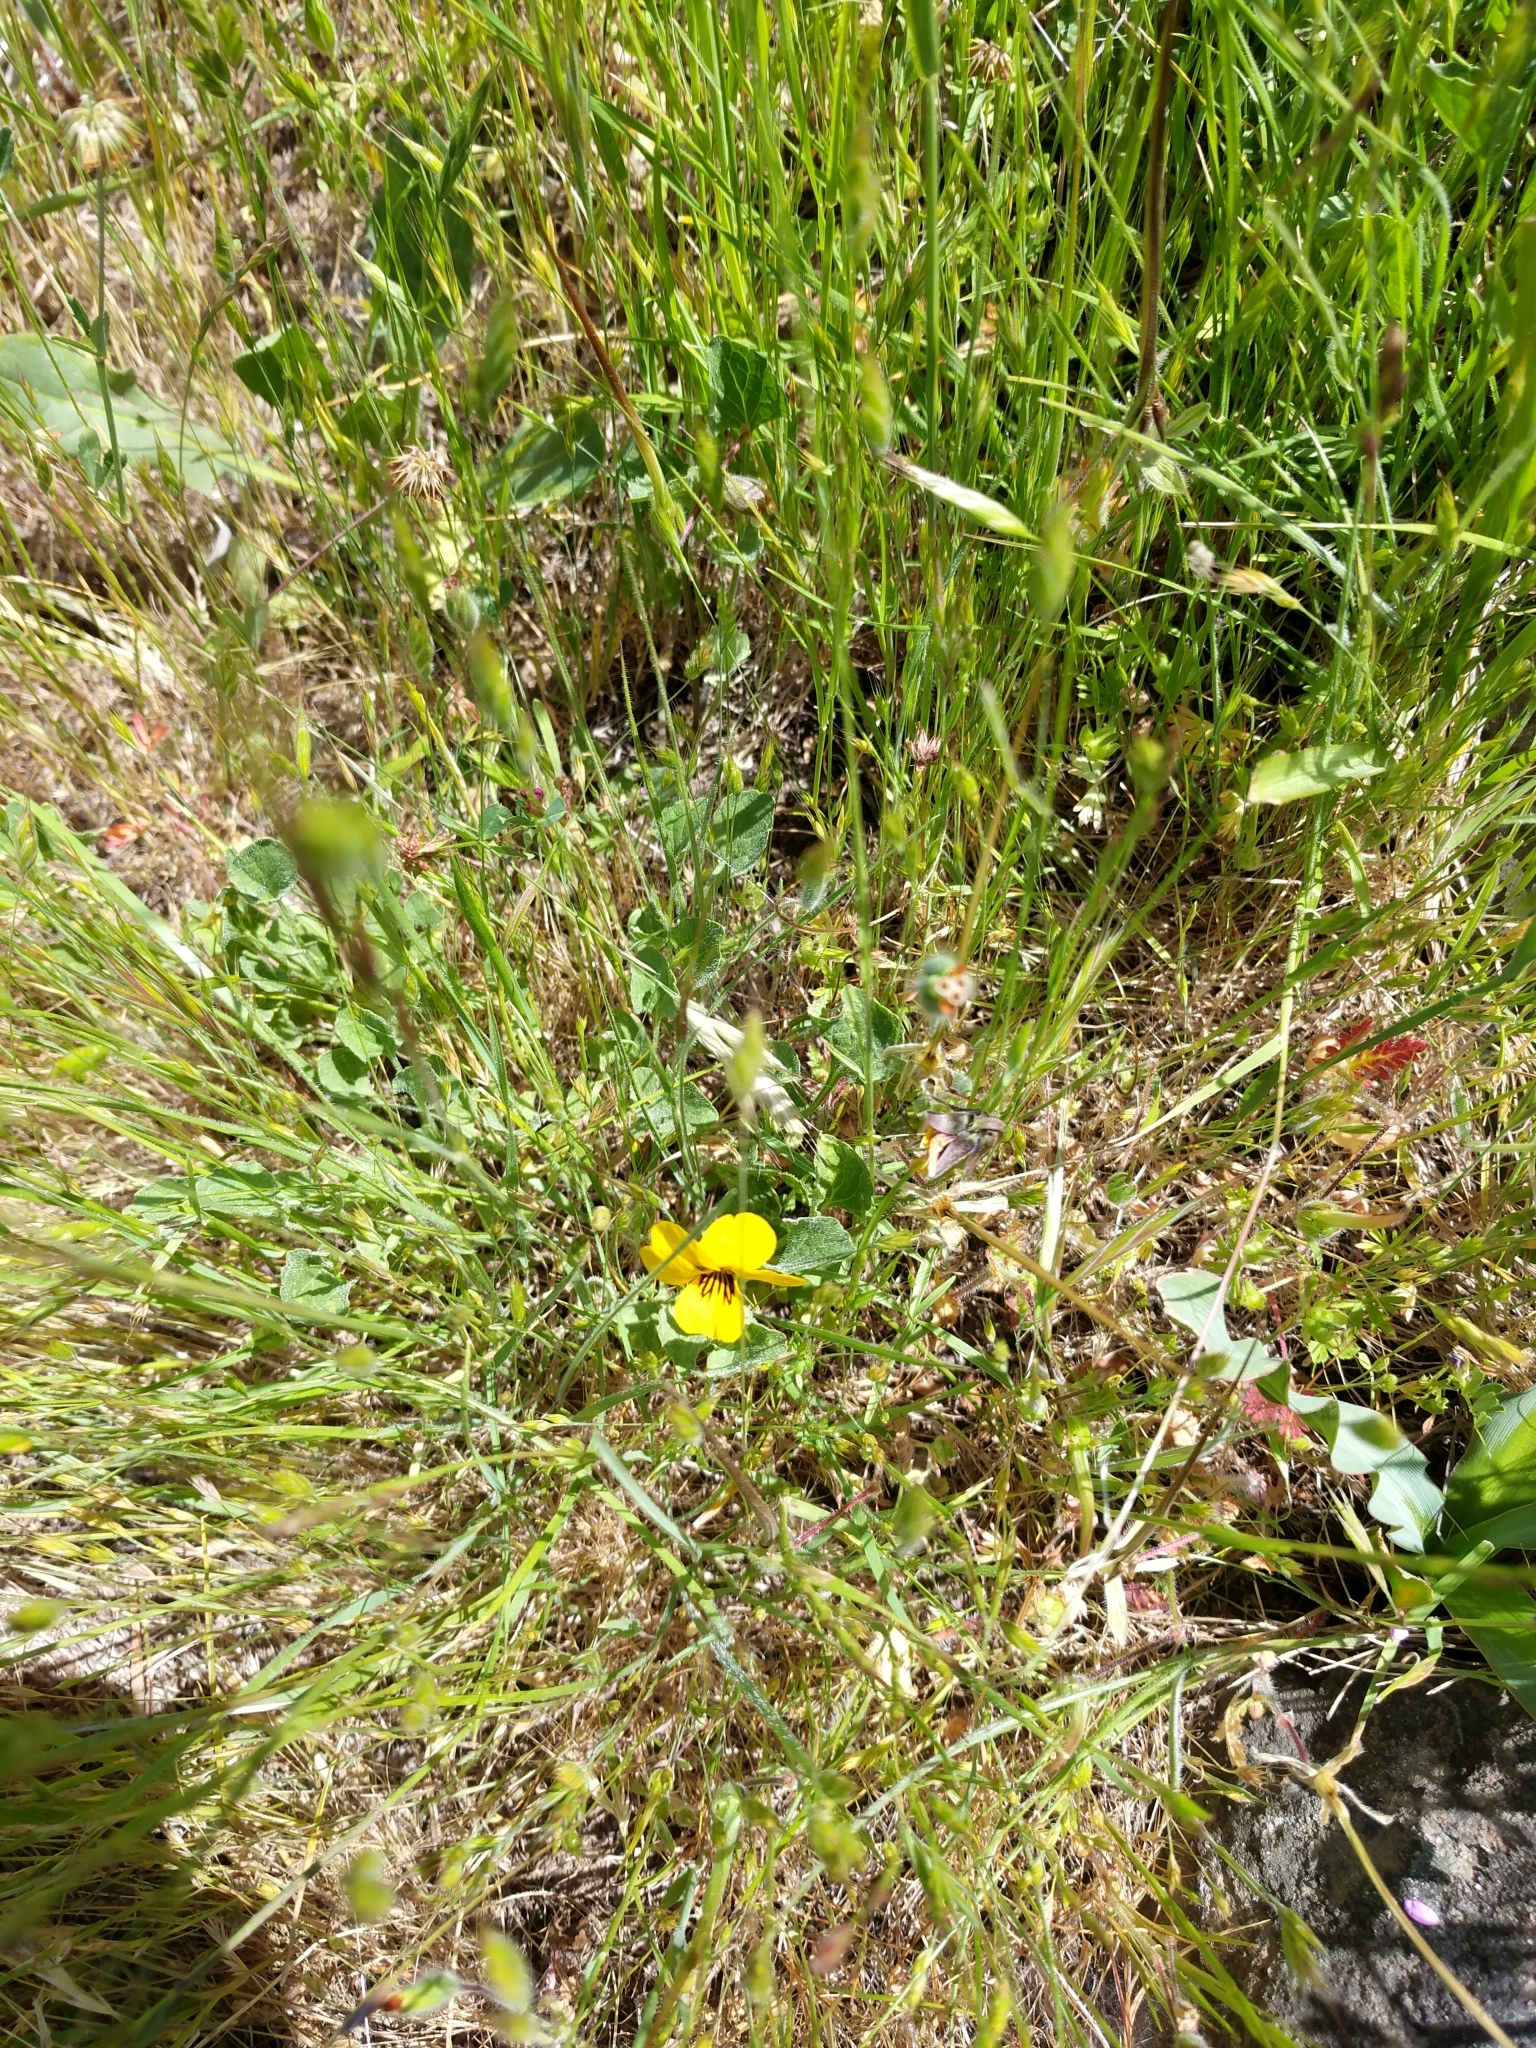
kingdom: Plantae
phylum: Tracheophyta
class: Magnoliopsida
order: Malpighiales
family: Violaceae
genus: Viola
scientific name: Viola pedunculata
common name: California golden violet
